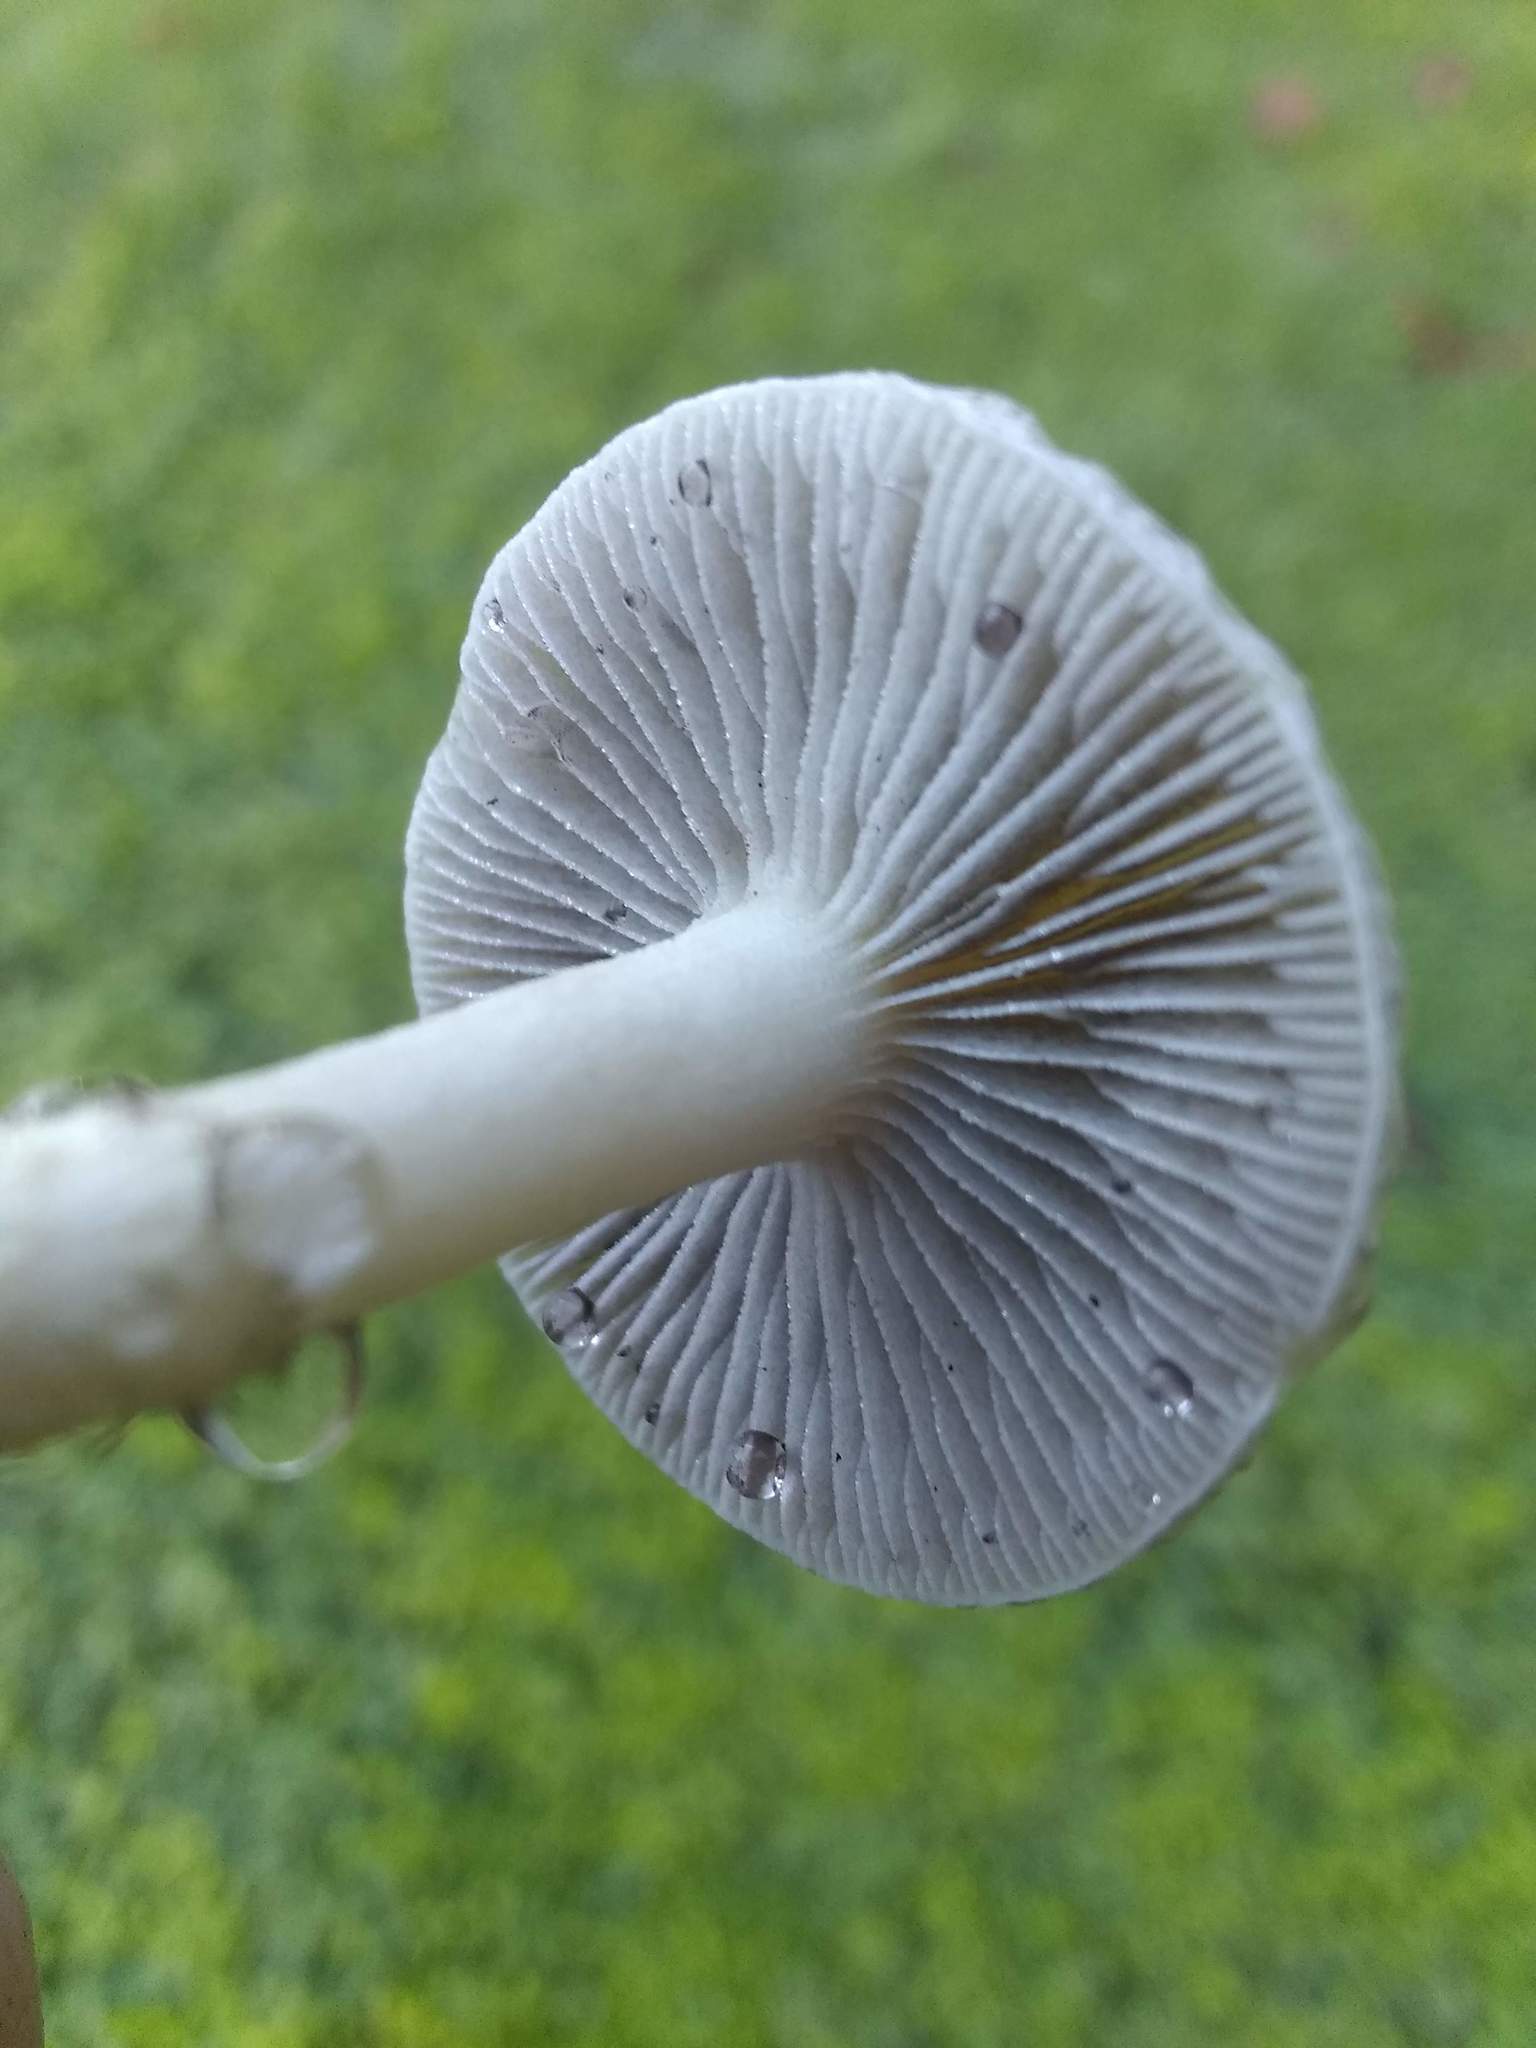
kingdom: Fungi
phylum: Basidiomycota
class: Agaricomycetes
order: Agaricales
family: Strophariaceae
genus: Leratiomyces
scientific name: Leratiomyces percevalii
